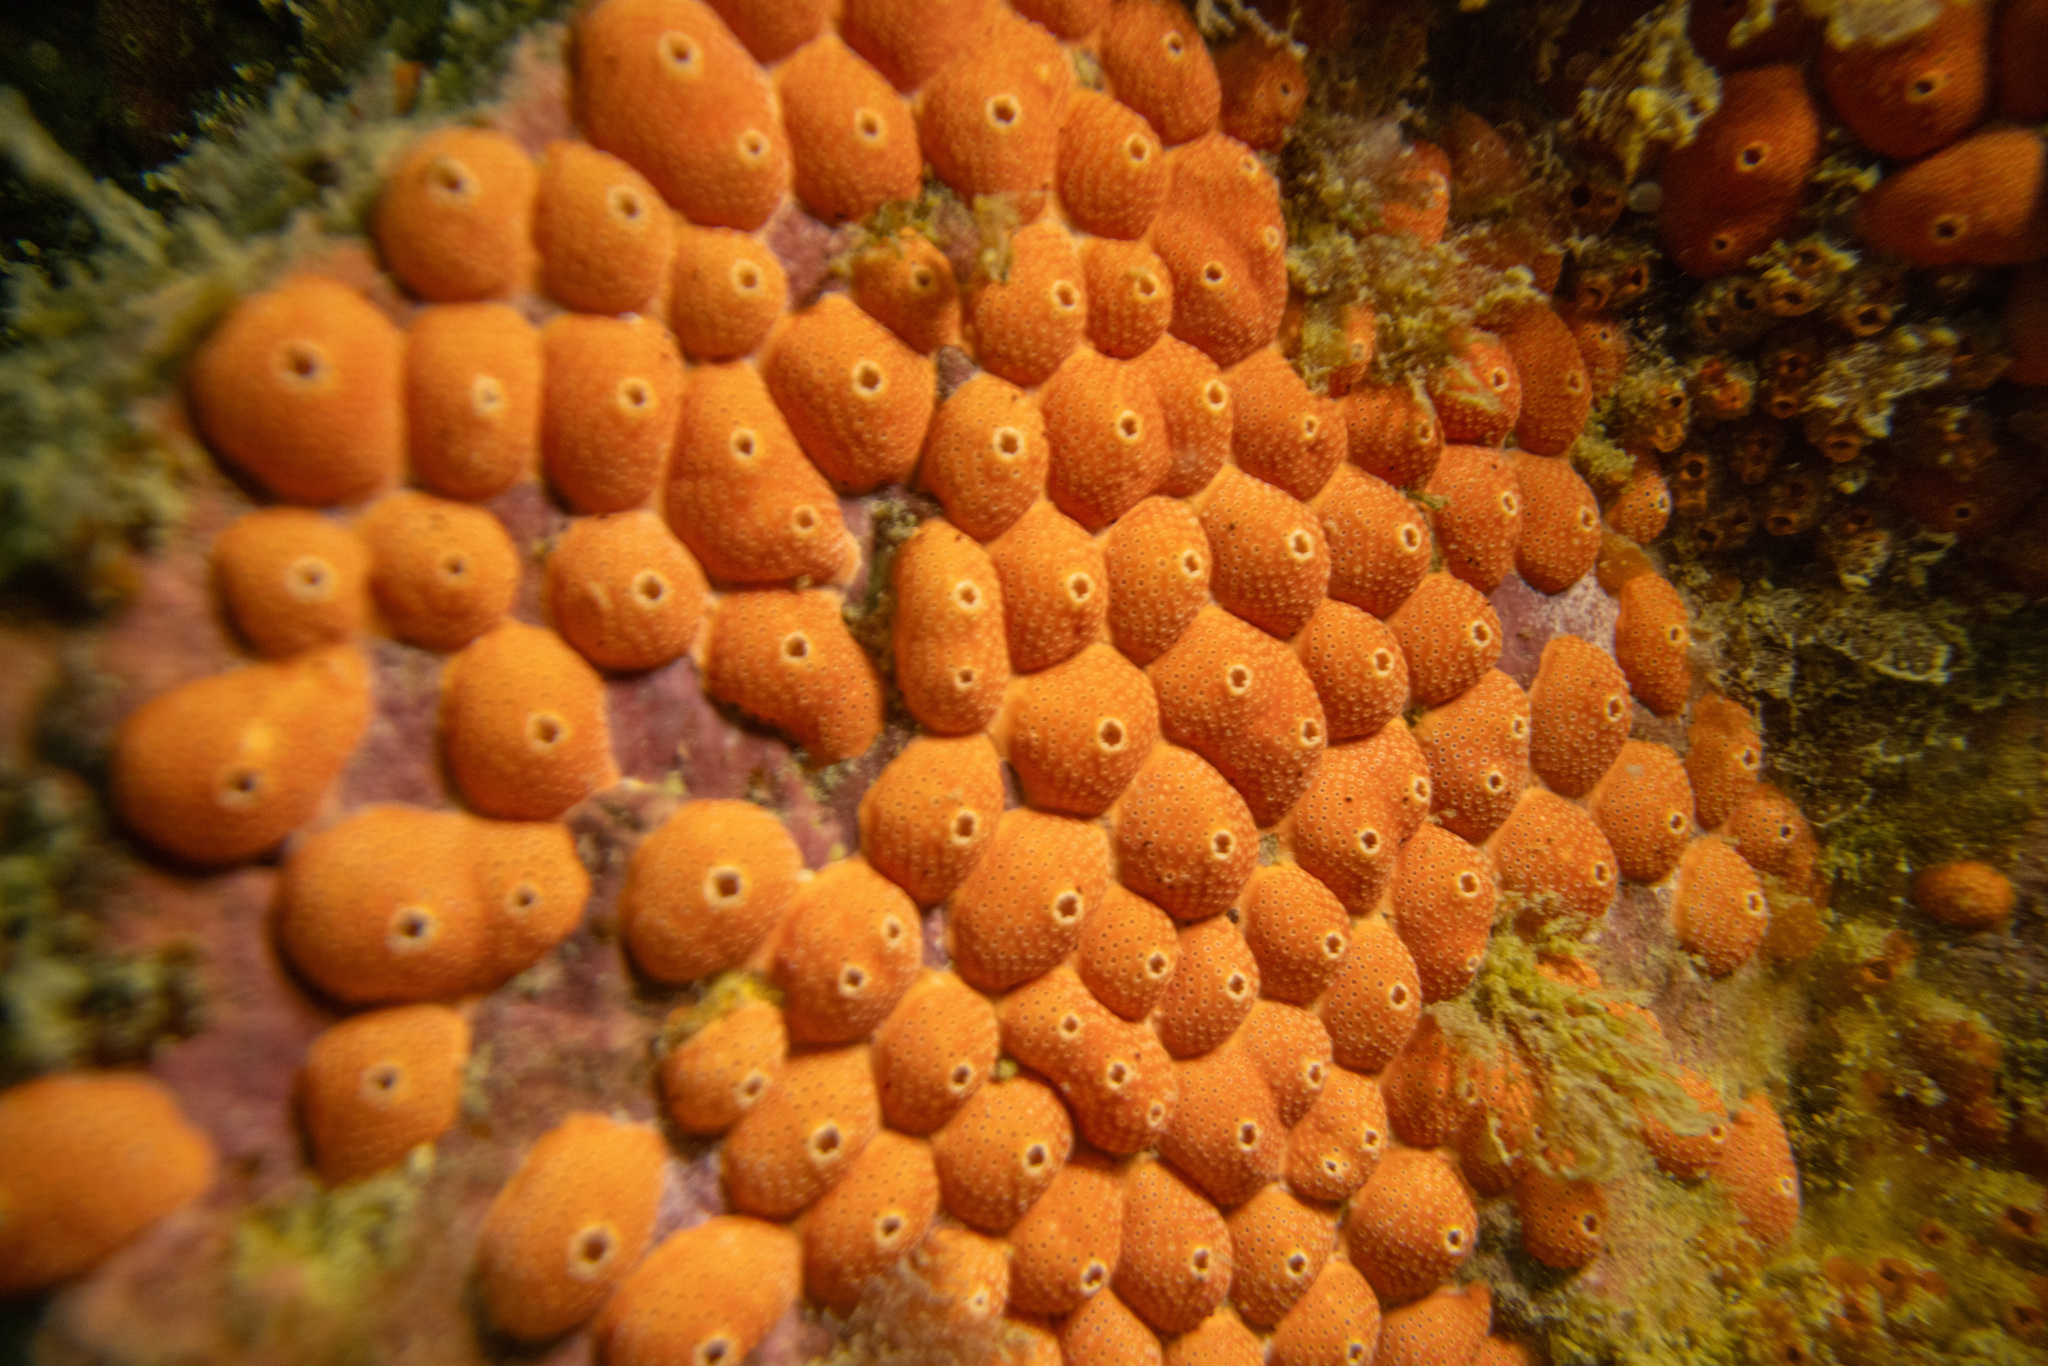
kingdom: Animalia
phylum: Chordata
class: Ascidiacea
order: Aplousobranchia
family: Didemnidae
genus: Didemnum
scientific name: Didemnum densum
